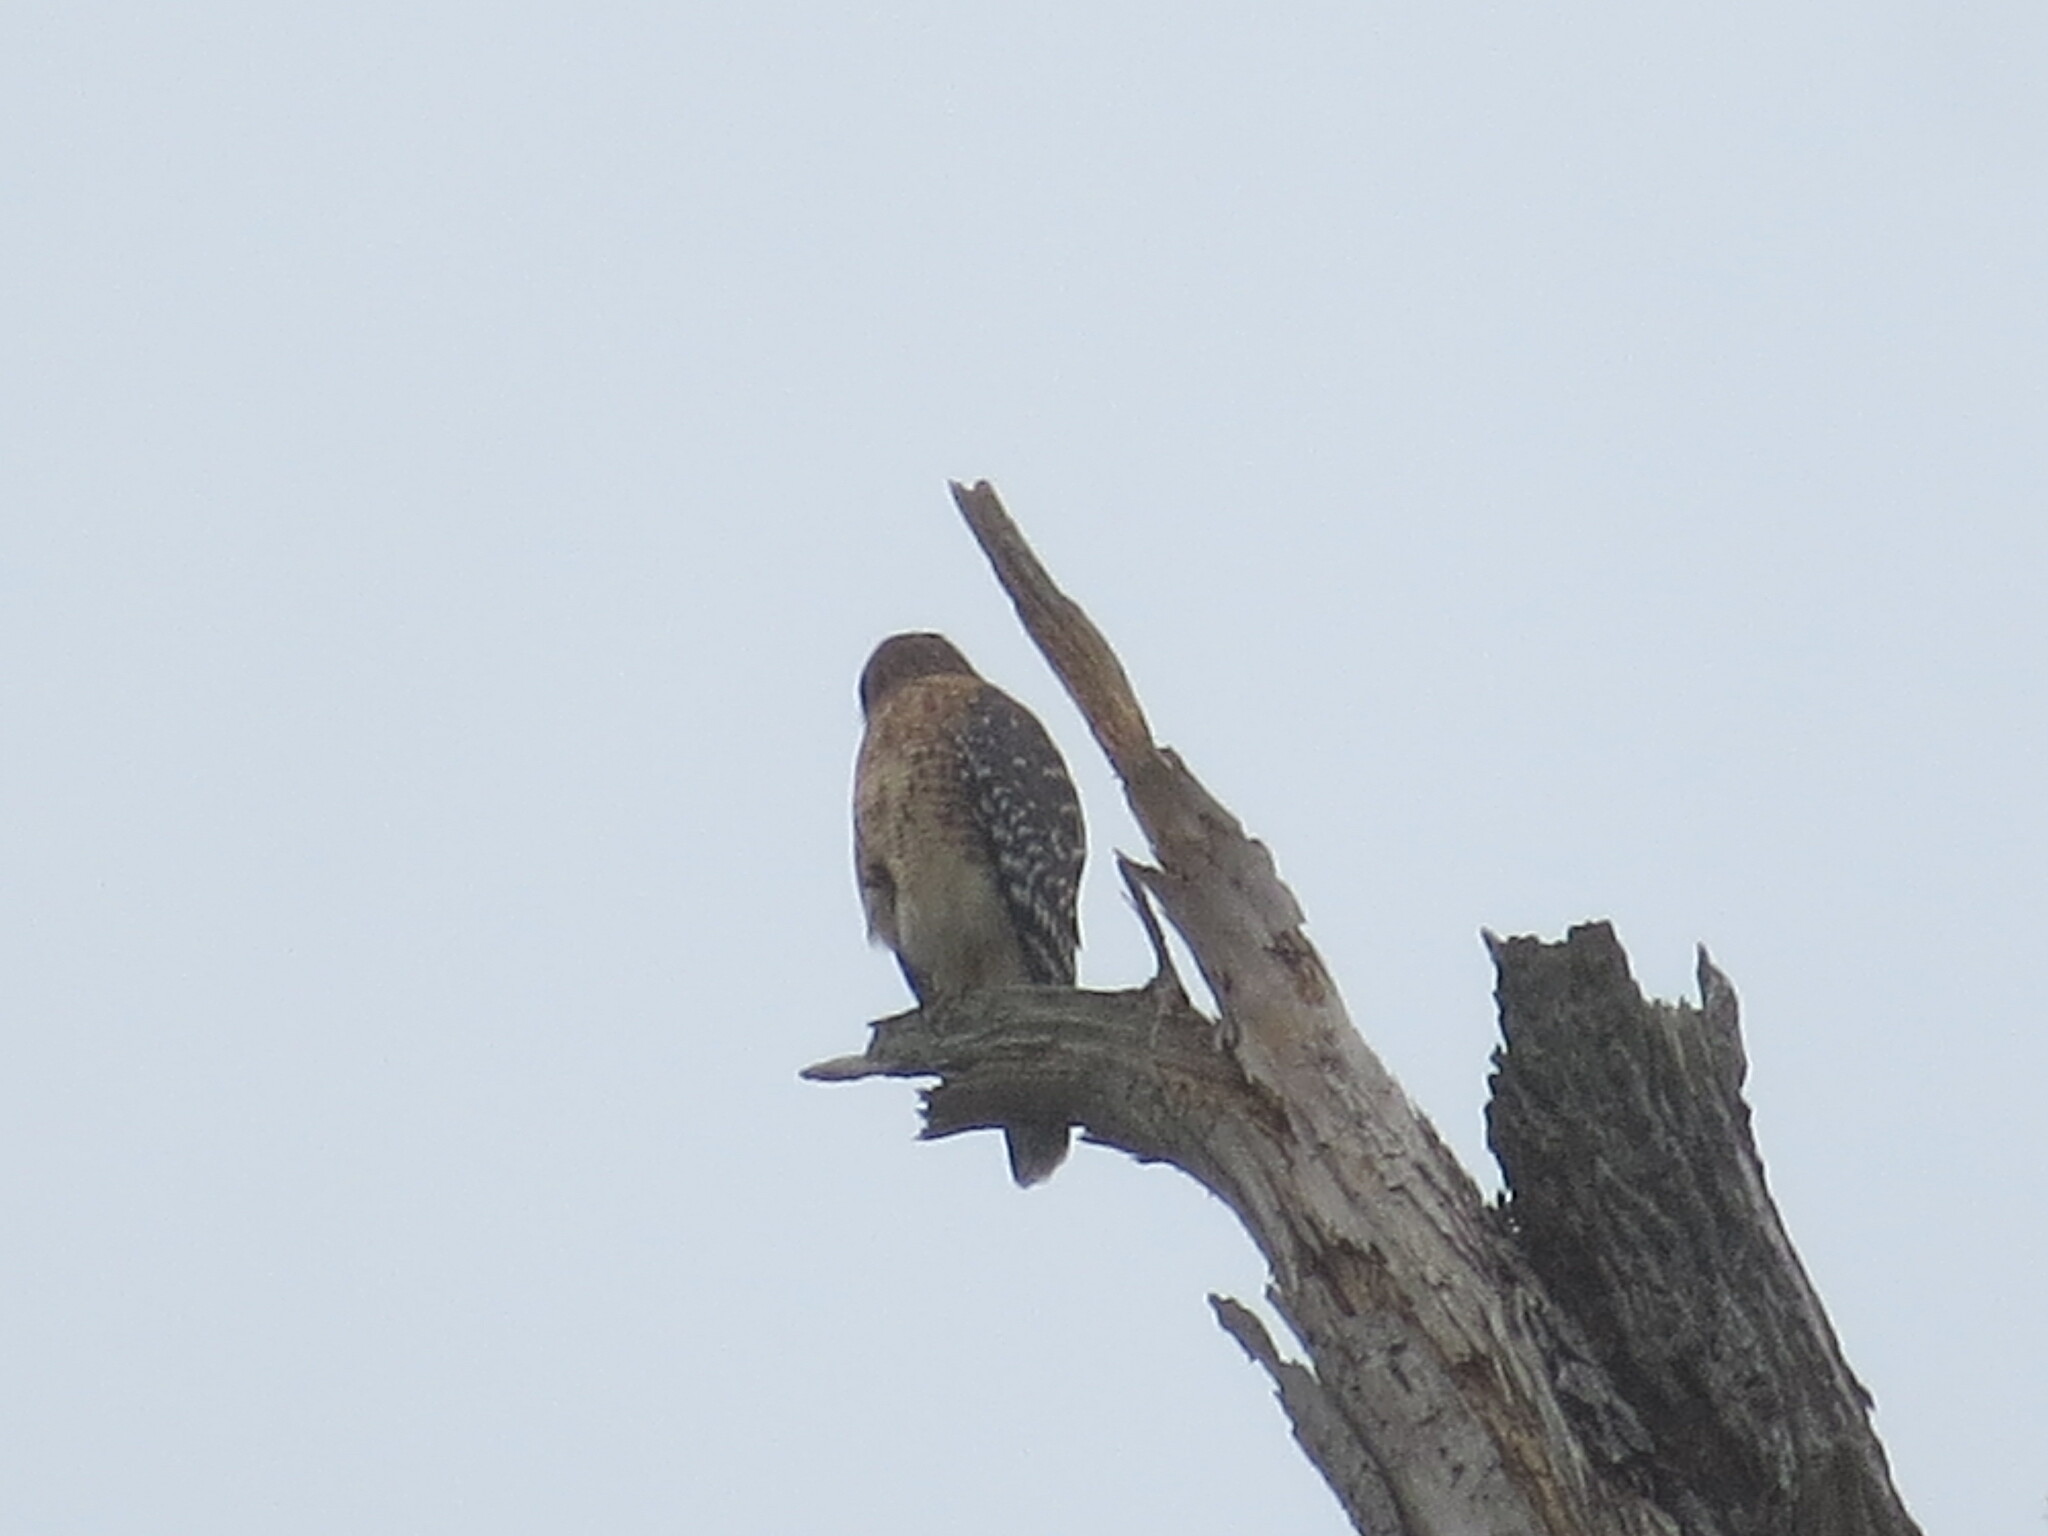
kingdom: Animalia
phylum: Chordata
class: Aves
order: Accipitriformes
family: Accipitridae
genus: Buteo
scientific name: Buteo lineatus
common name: Red-shouldered hawk
